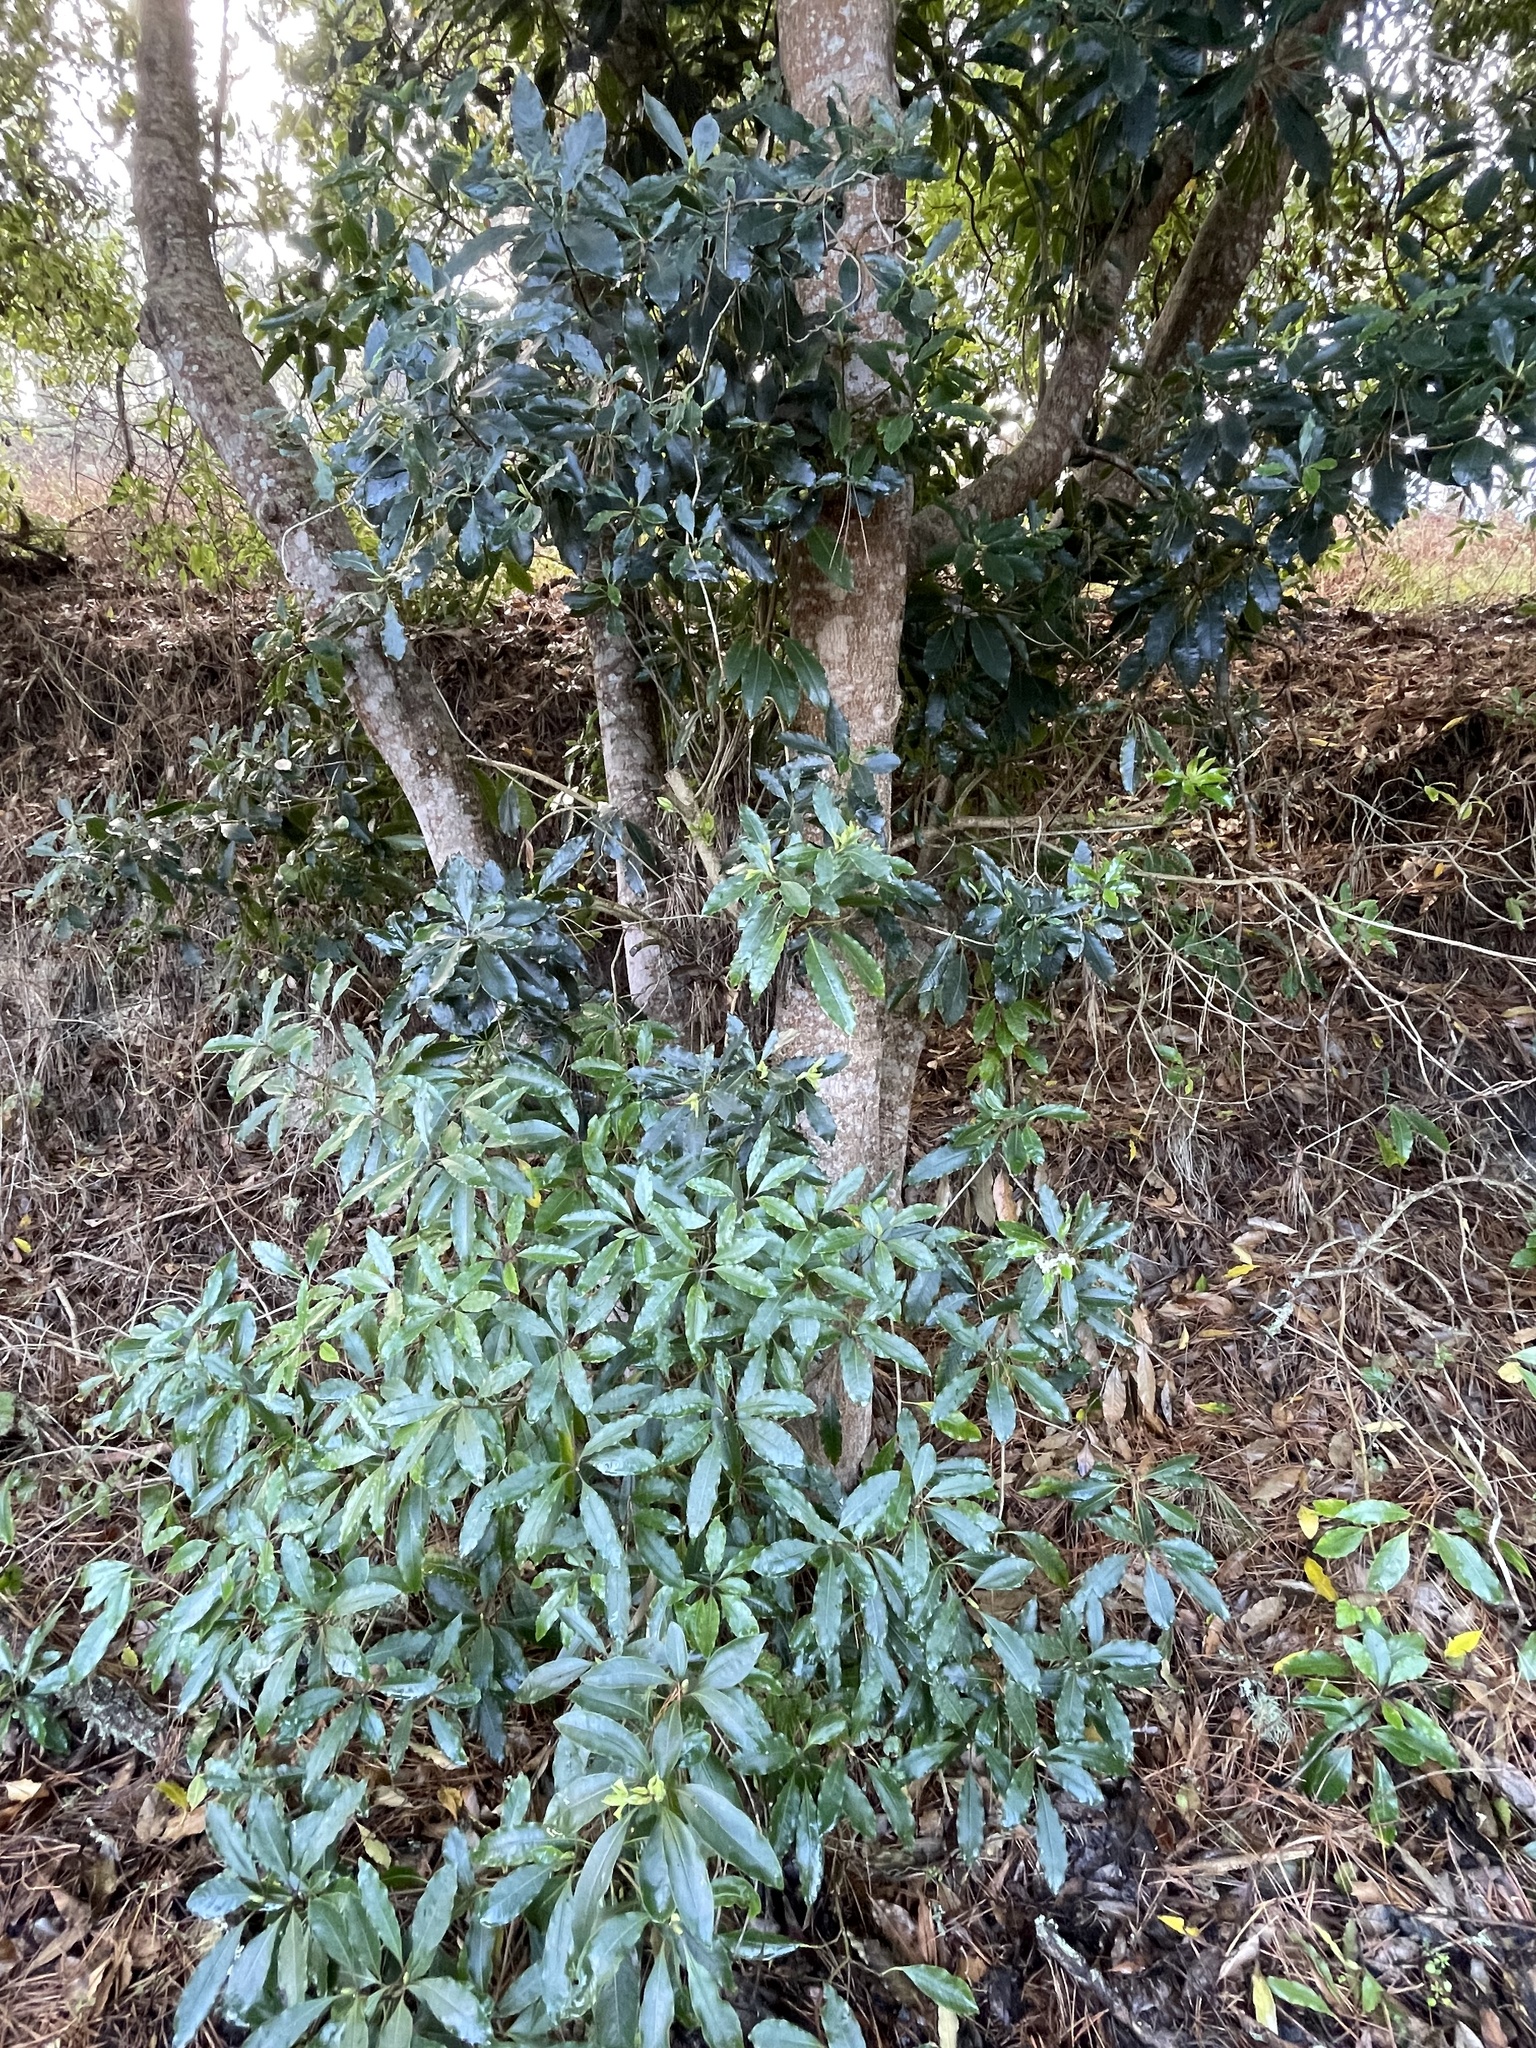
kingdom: Plantae
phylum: Tracheophyta
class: Magnoliopsida
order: Apiales
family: Pittosporaceae
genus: Pittosporum
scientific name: Pittosporum undulatum
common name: Australian cheesewood
